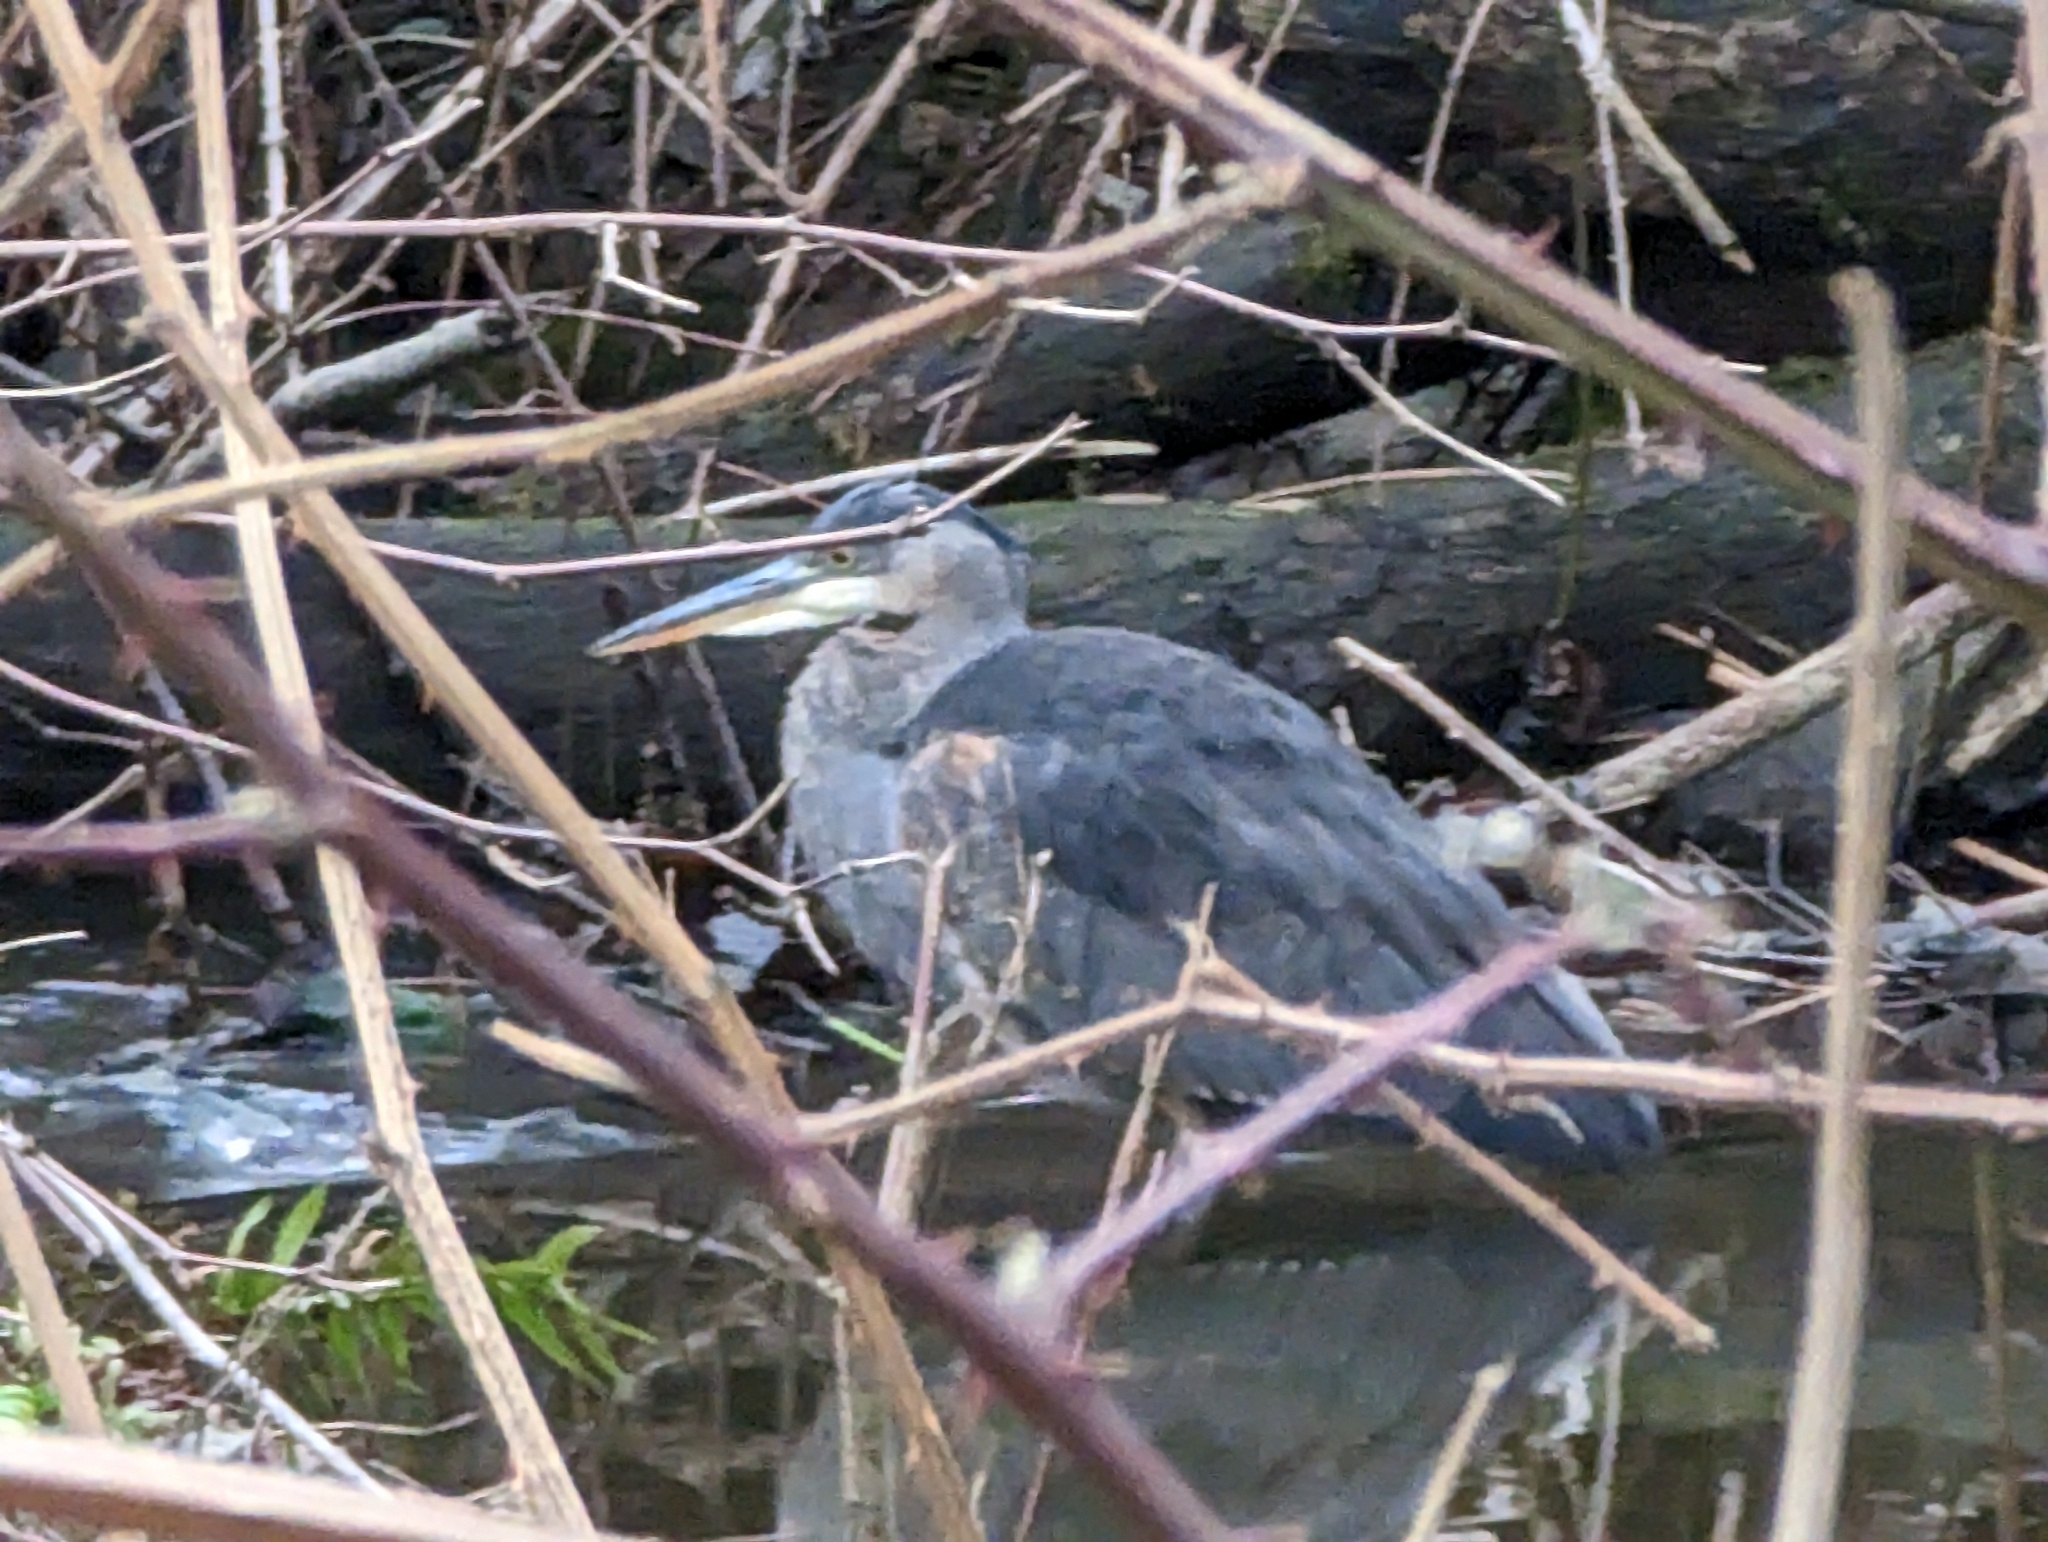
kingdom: Animalia
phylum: Chordata
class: Aves
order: Pelecaniformes
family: Ardeidae
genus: Ardea
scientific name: Ardea herodias
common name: Great blue heron
